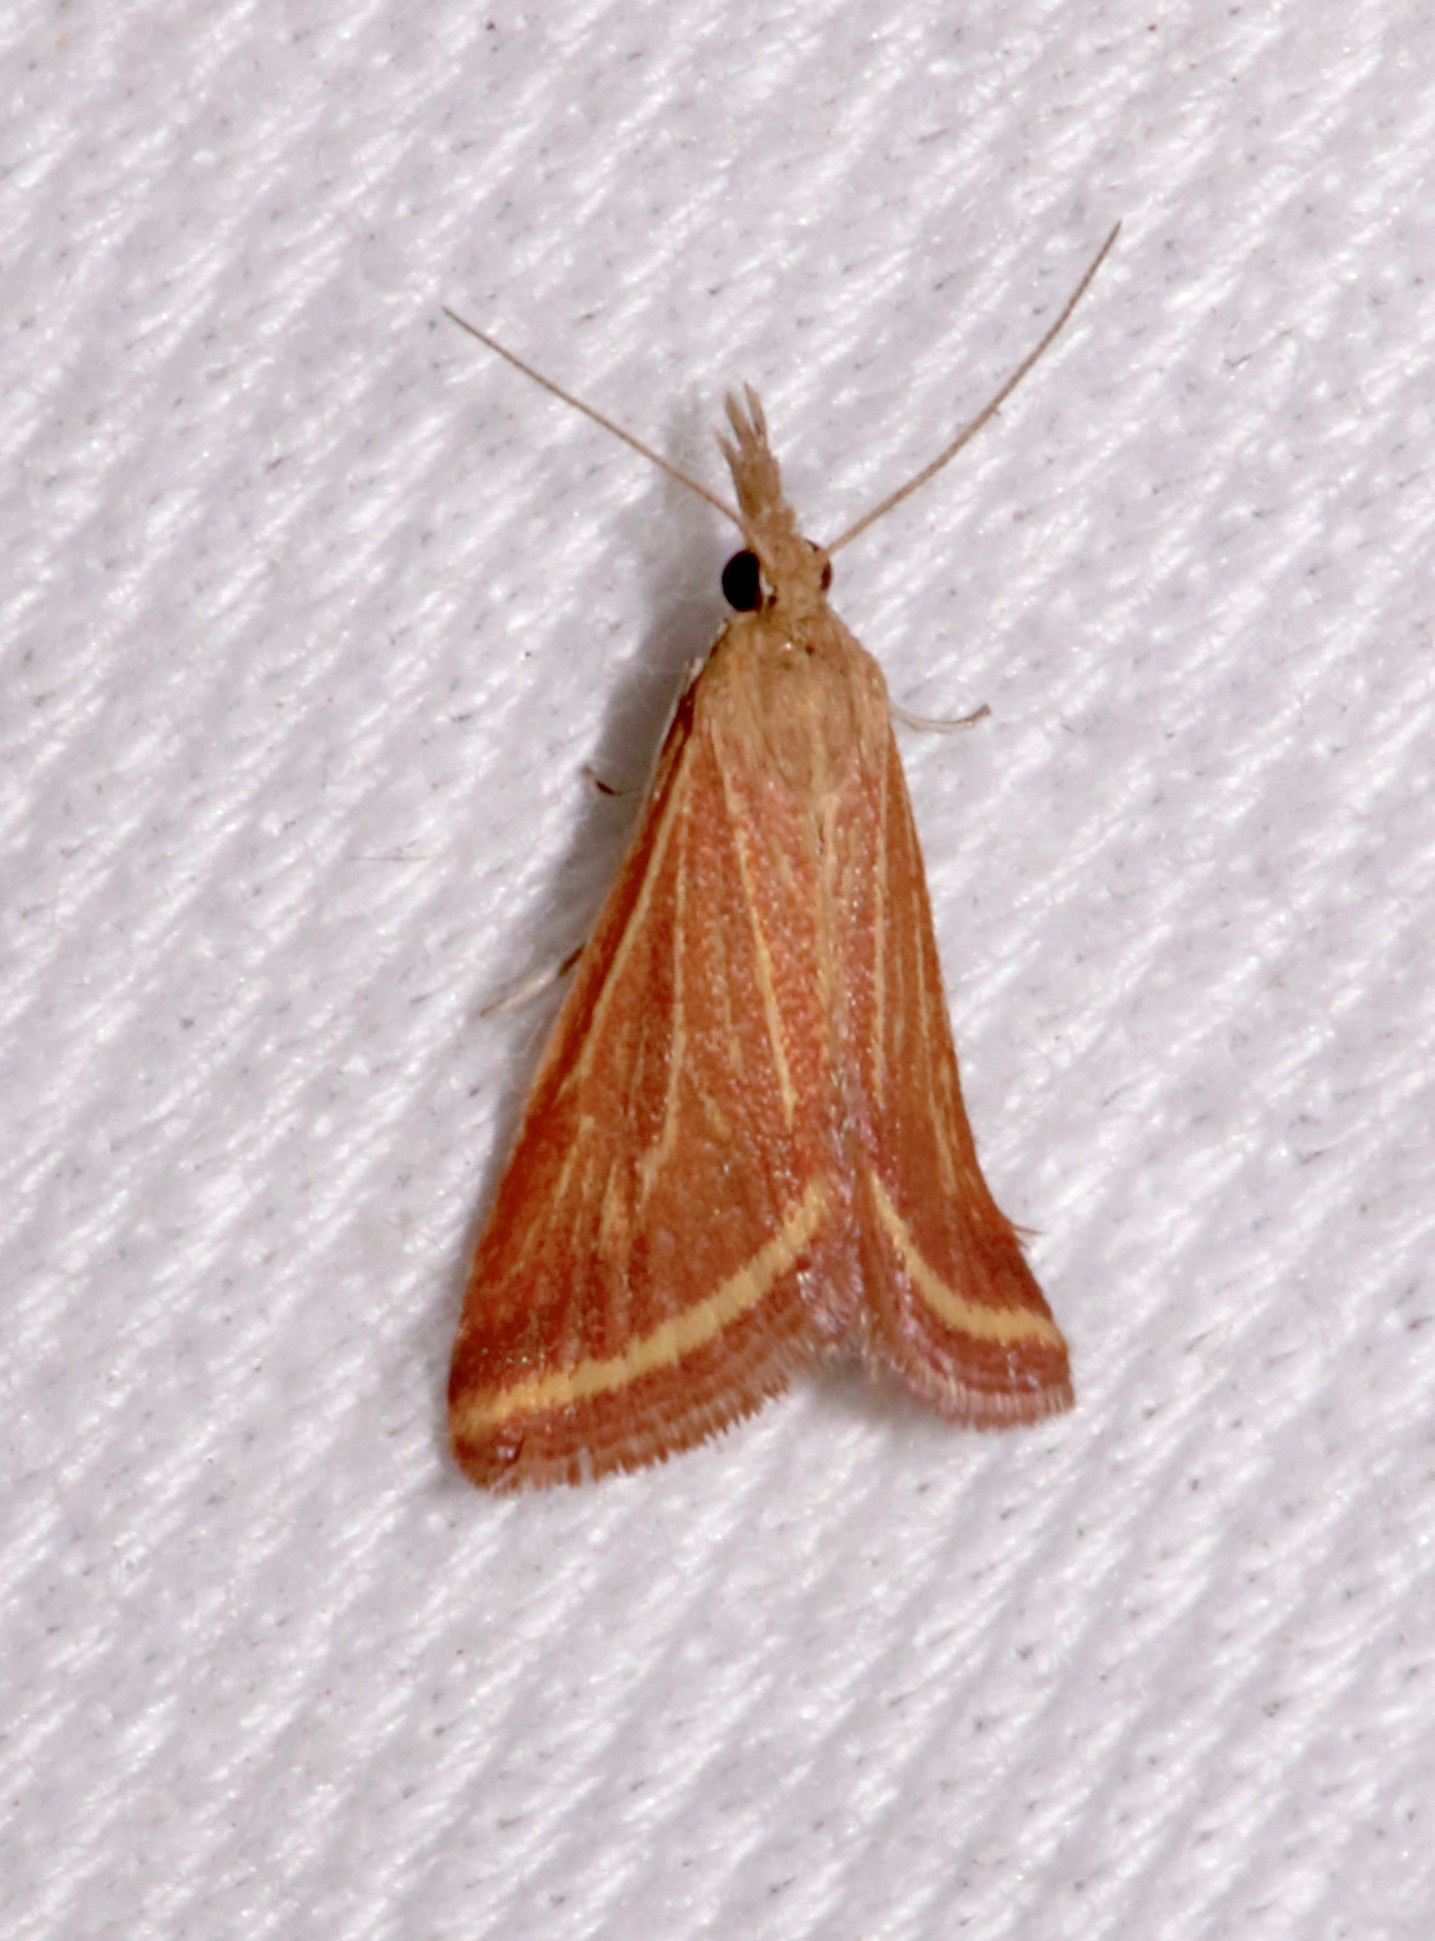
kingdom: Animalia
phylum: Arthropoda
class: Insecta
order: Lepidoptera
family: Crambidae
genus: Microtheoris
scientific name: Microtheoris ophionalis
